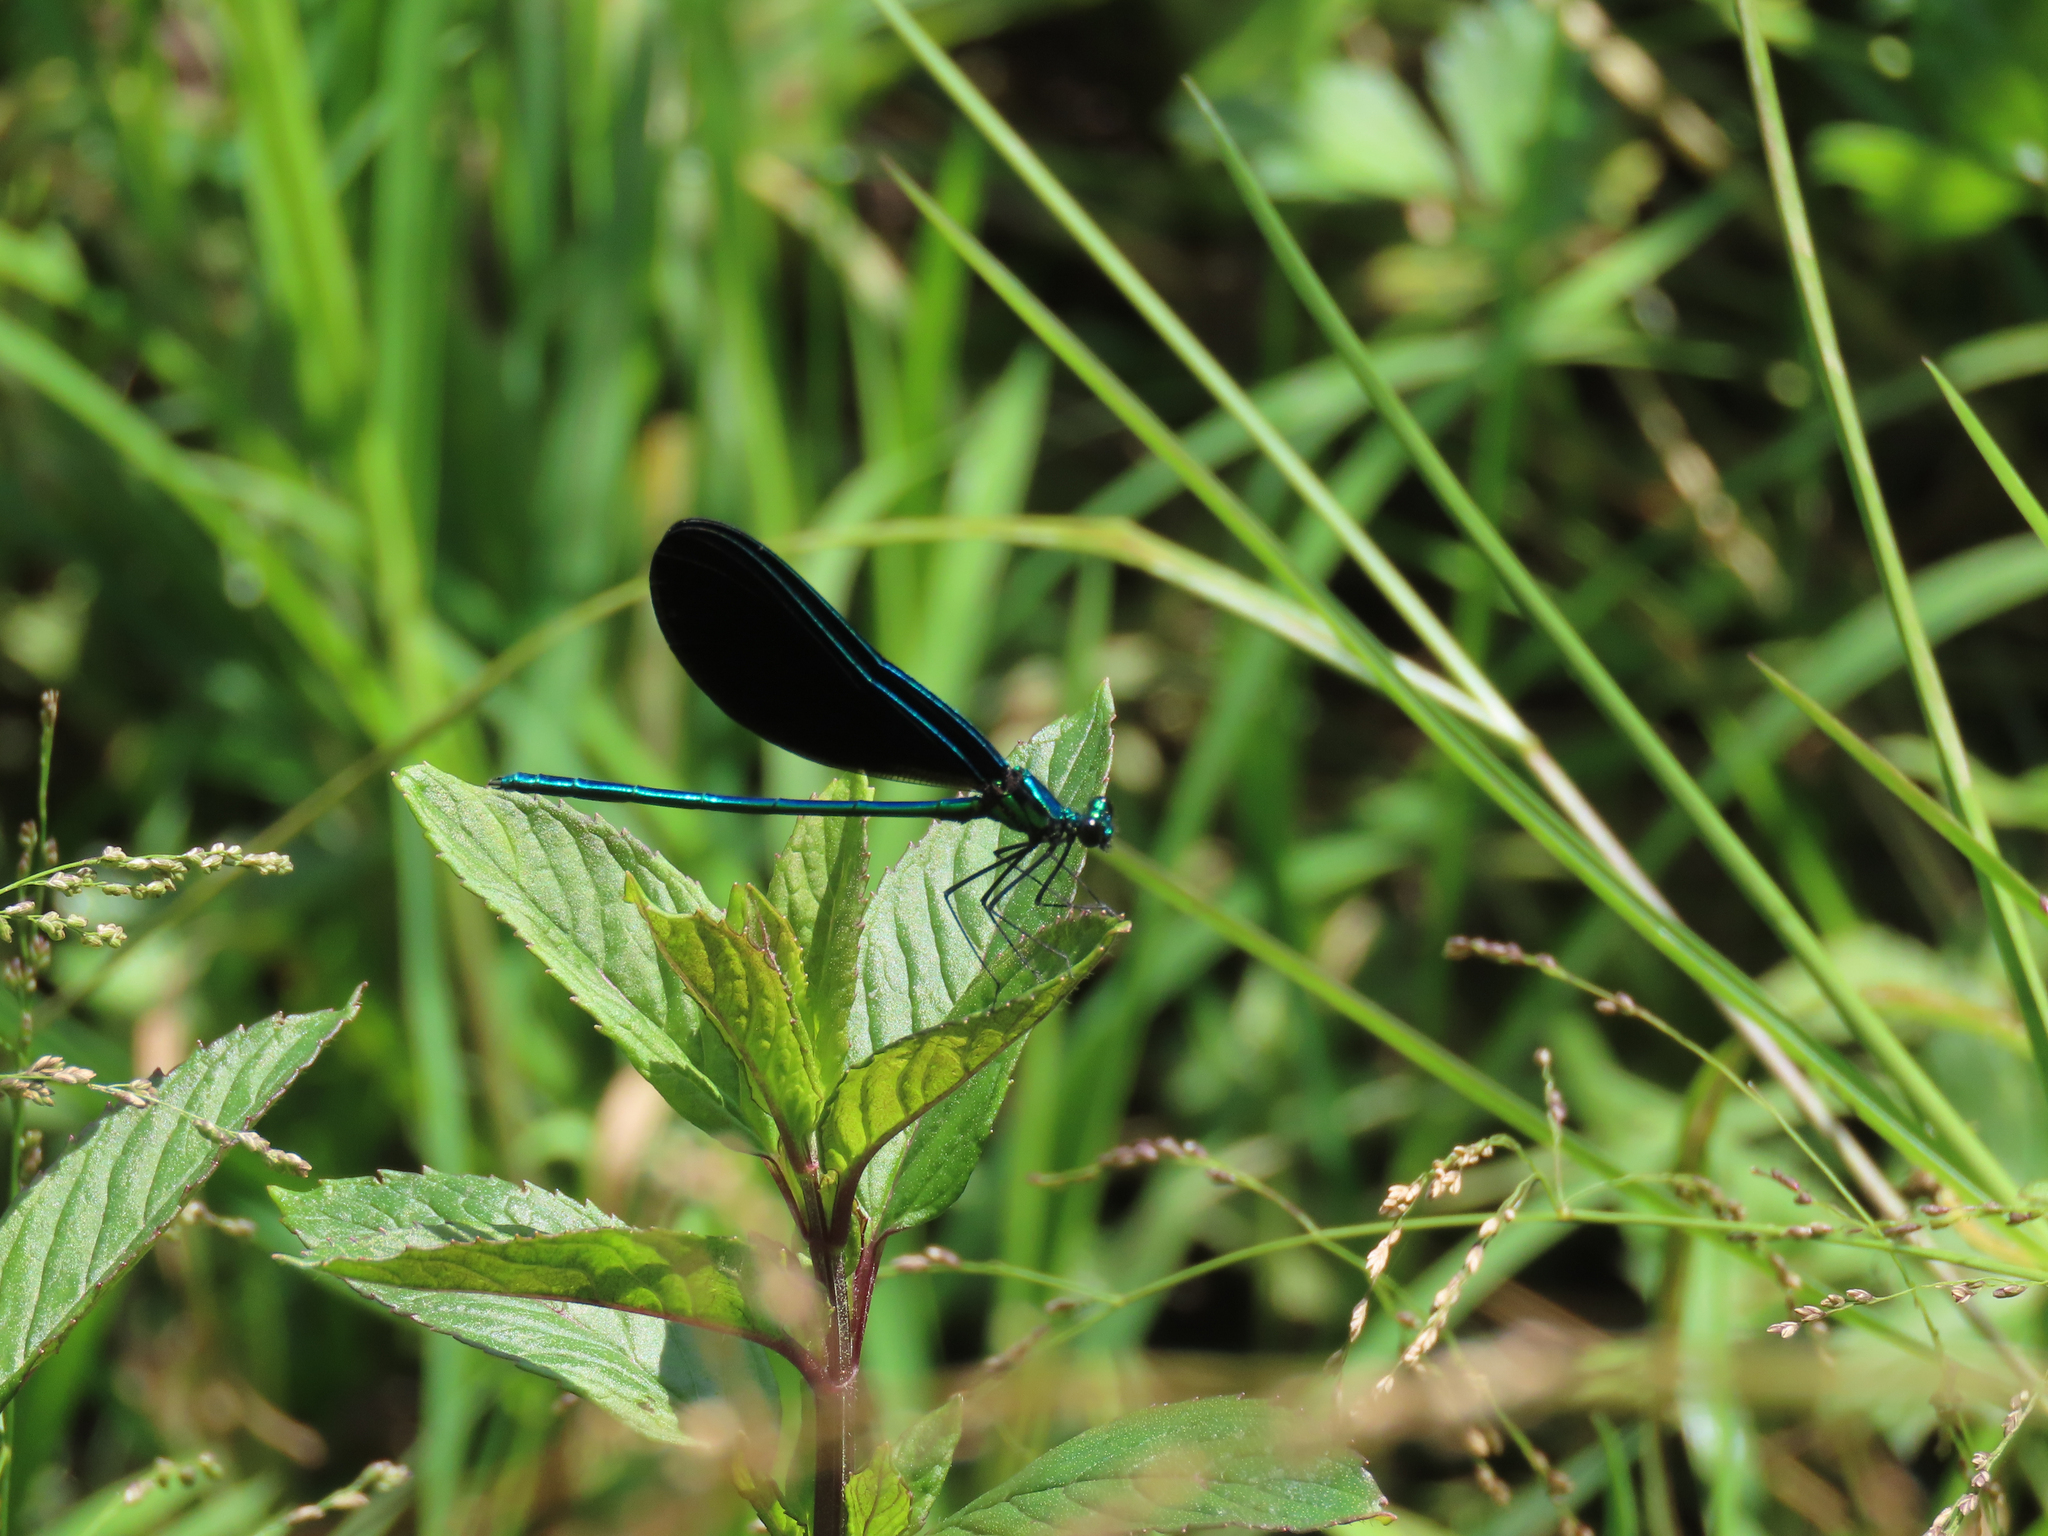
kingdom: Animalia
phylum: Arthropoda
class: Insecta
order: Odonata
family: Calopterygidae
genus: Calopteryx
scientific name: Calopteryx maculata
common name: Ebony jewelwing
